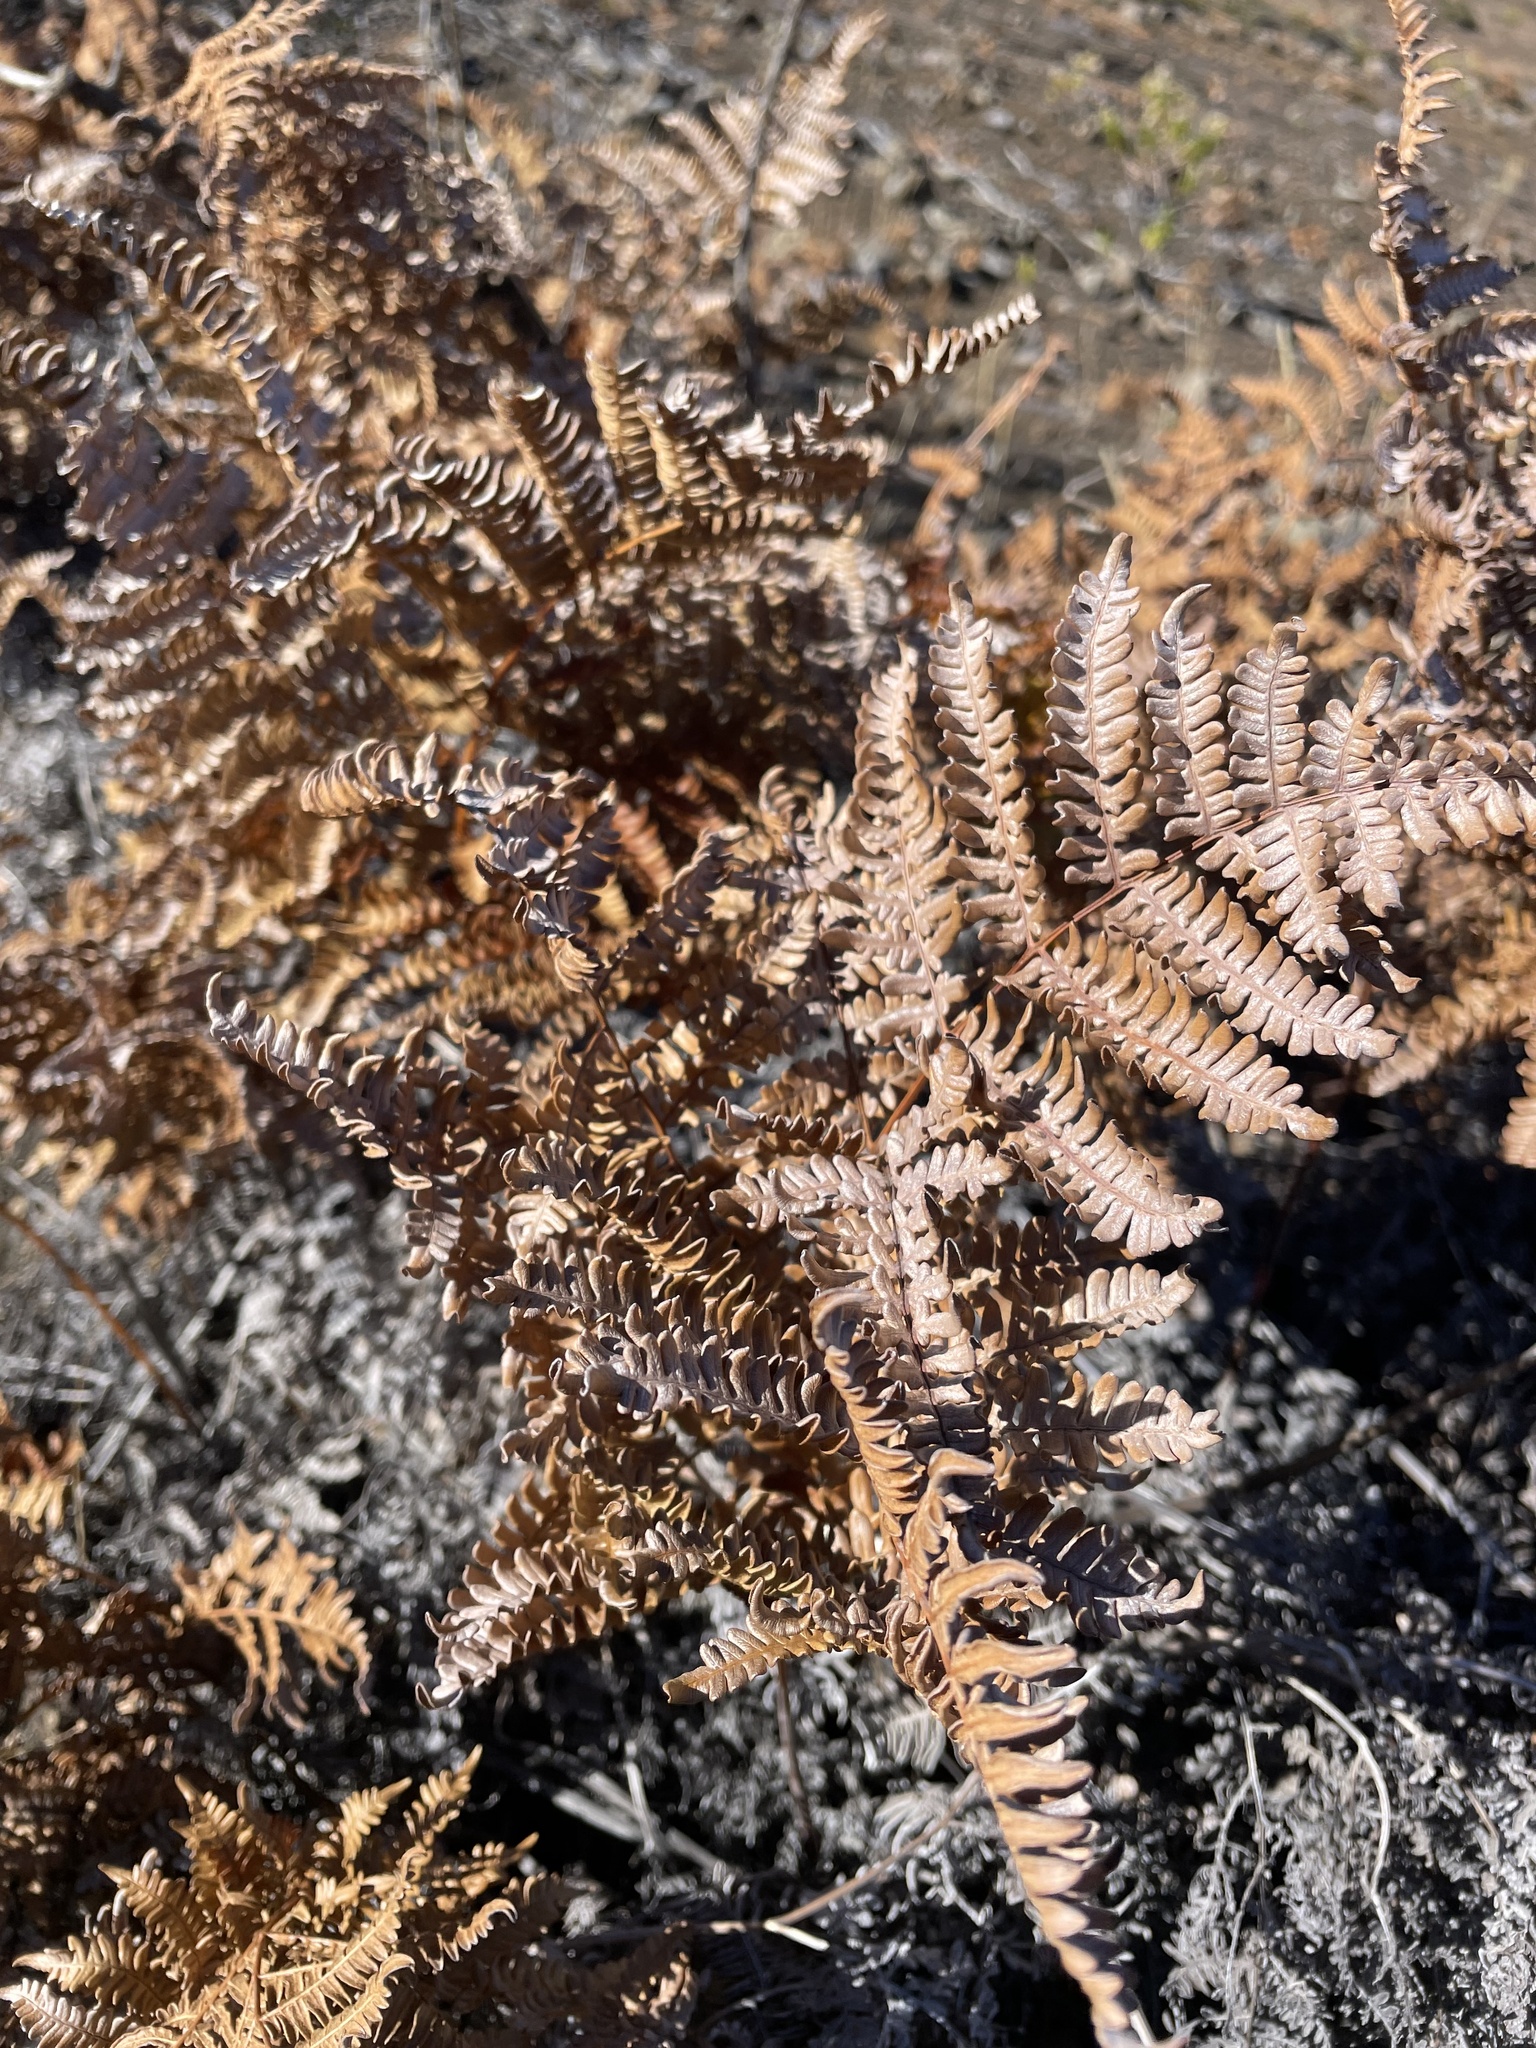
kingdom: Plantae
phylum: Tracheophyta
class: Polypodiopsida
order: Polypodiales
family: Dennstaedtiaceae
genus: Pteridium
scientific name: Pteridium aquilinum
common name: Bracken
